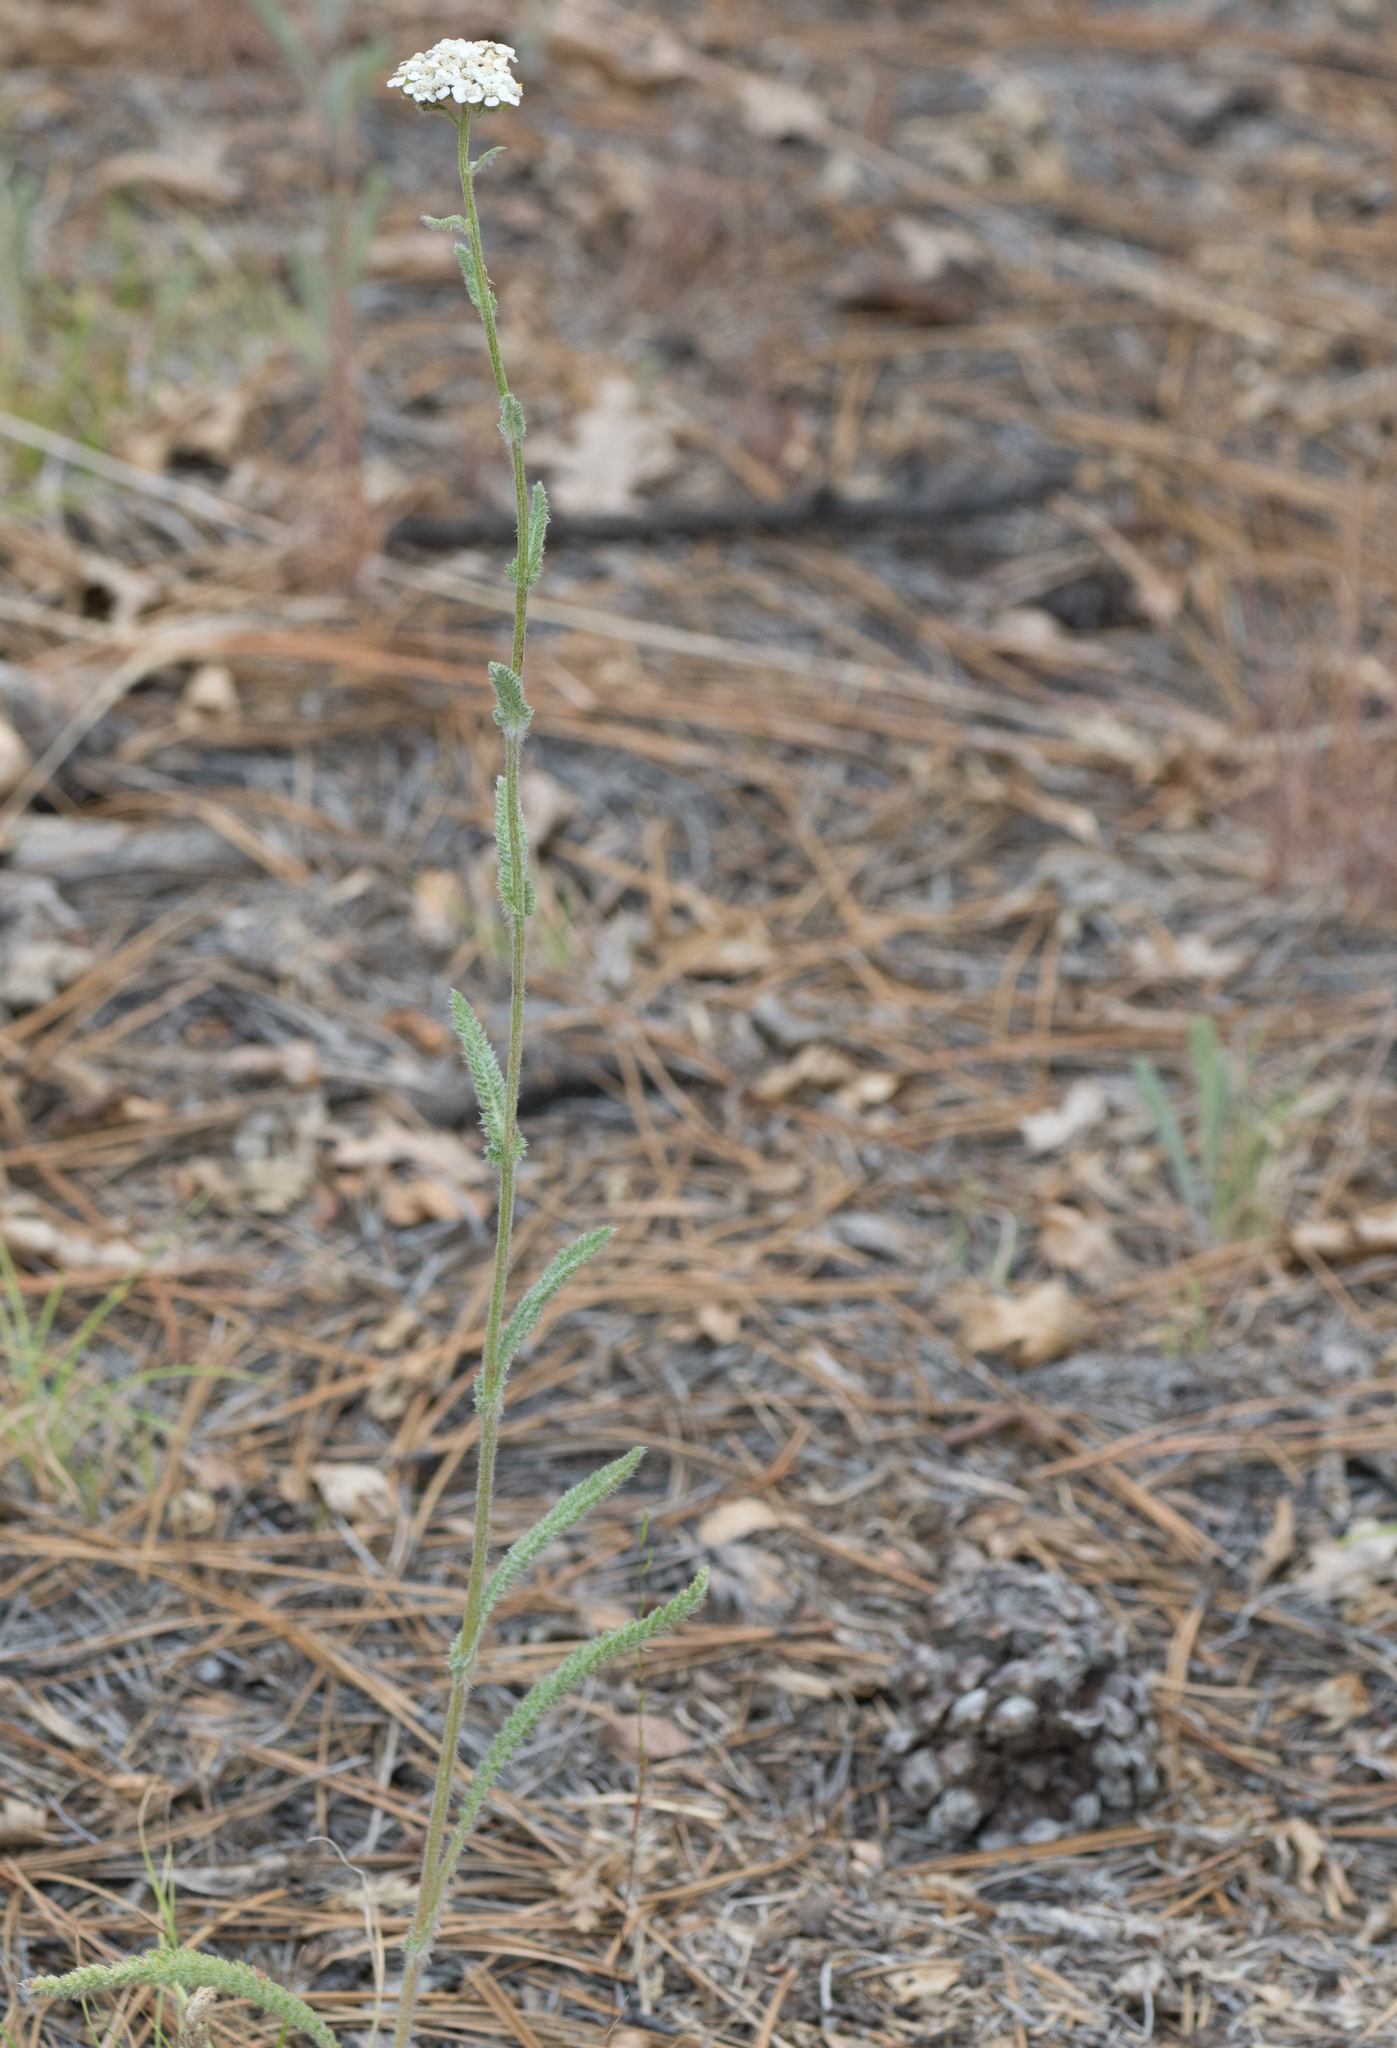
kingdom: Plantae
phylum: Tracheophyta
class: Magnoliopsida
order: Asterales
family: Asteraceae
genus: Achillea
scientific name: Achillea millefolium
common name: Yarrow
